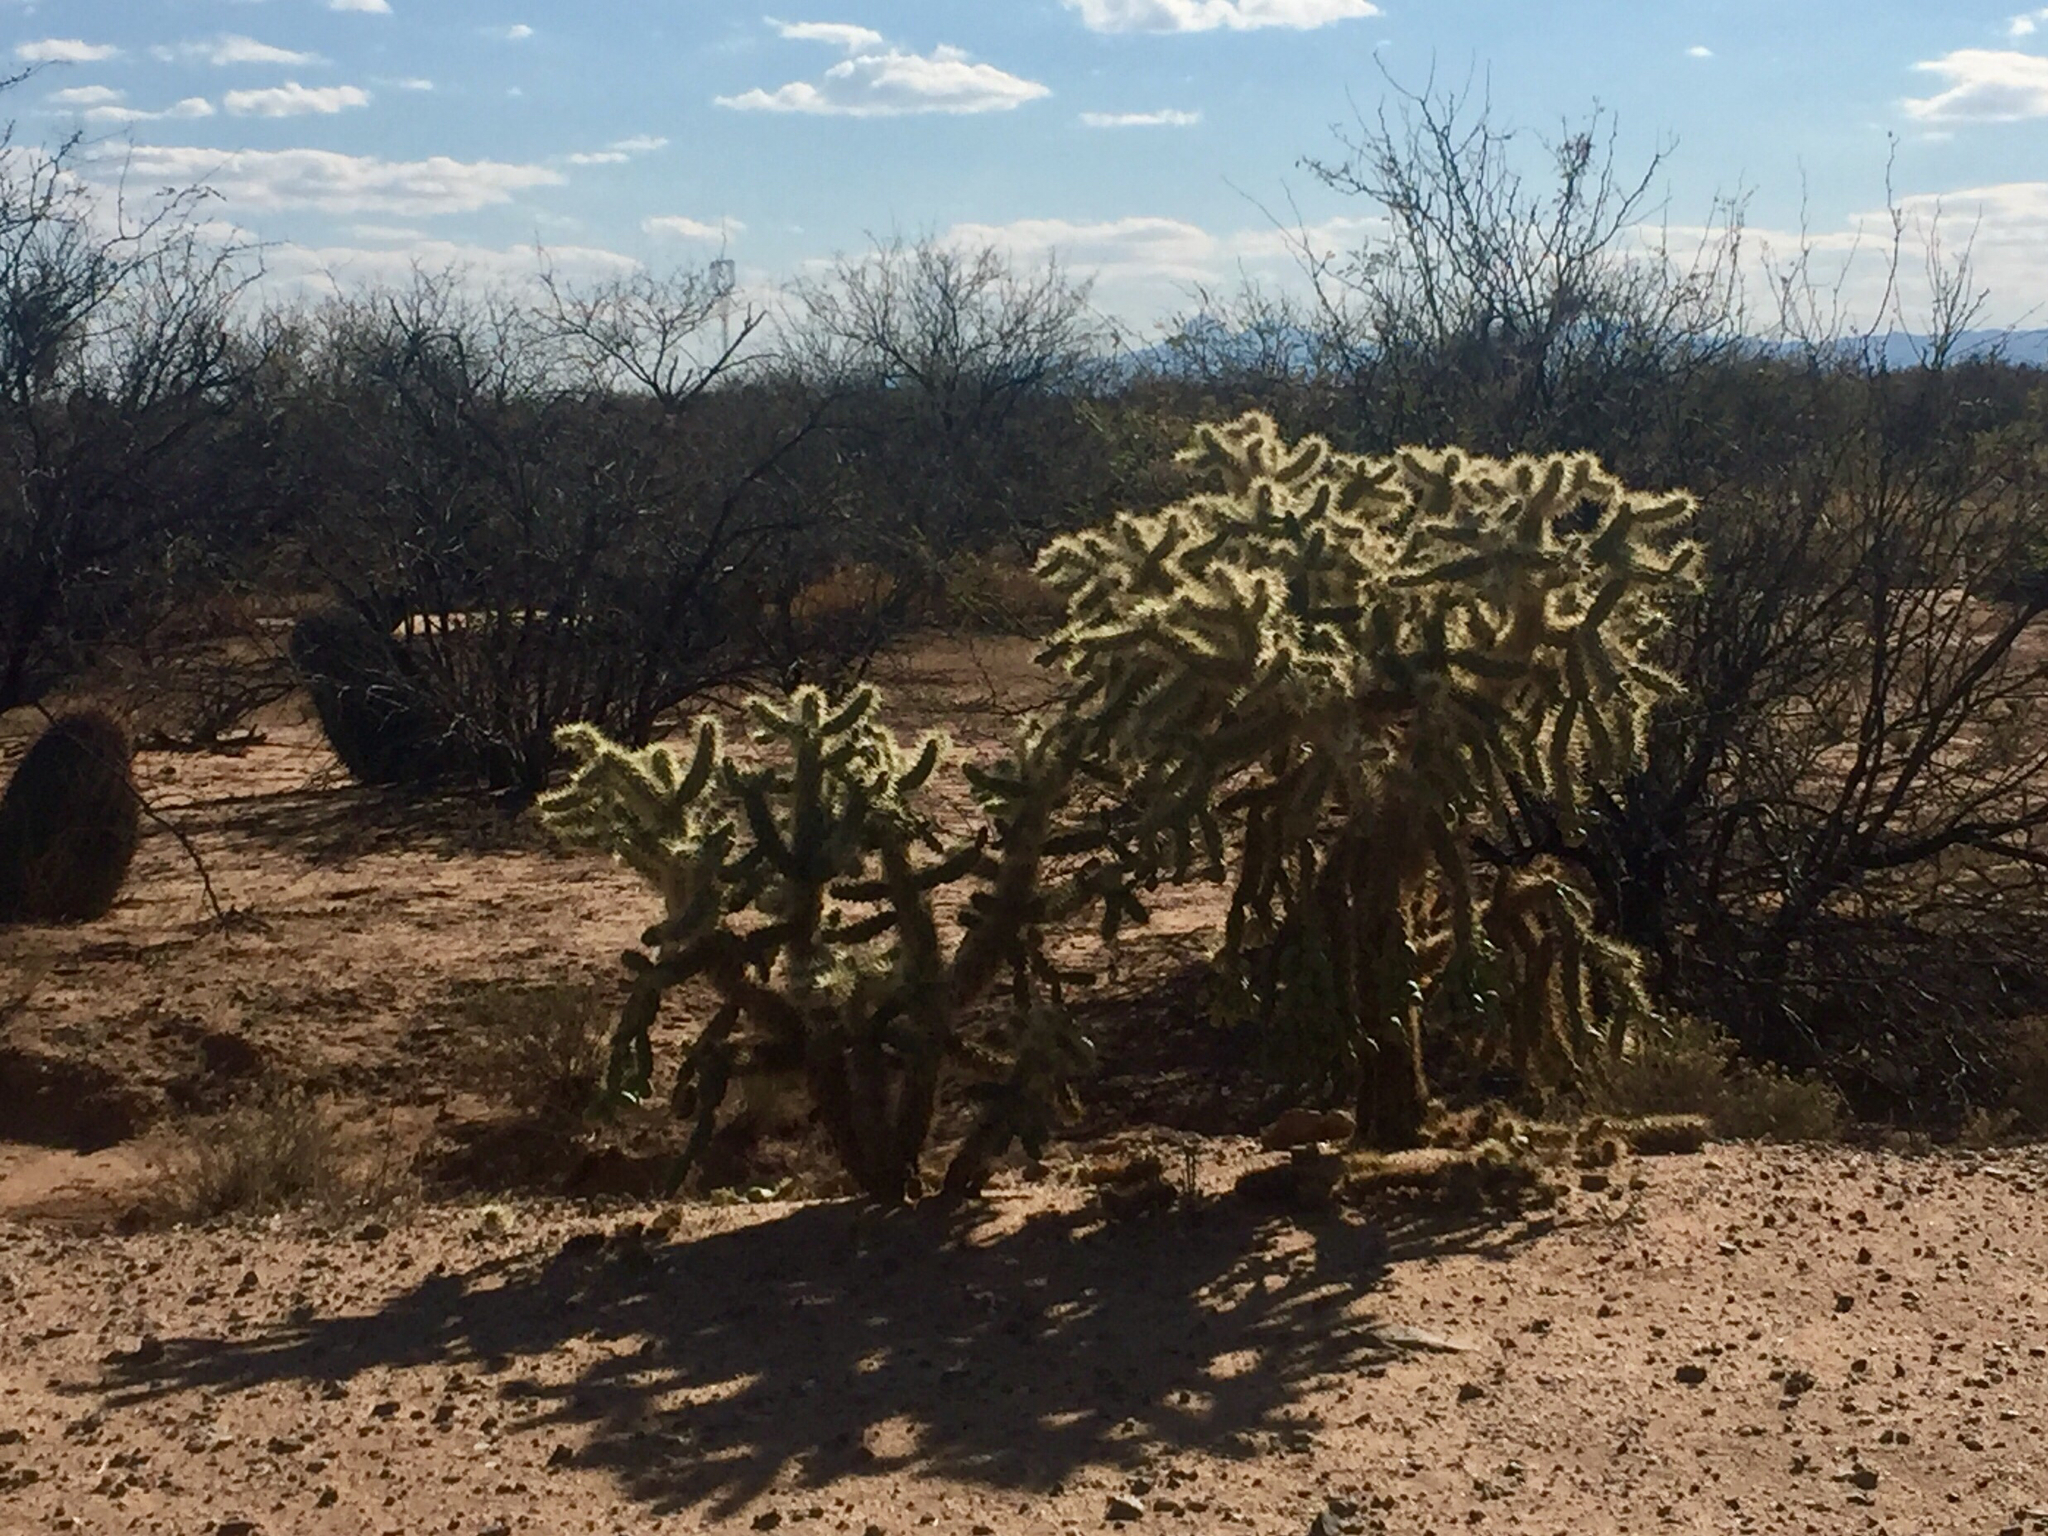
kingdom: Plantae
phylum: Tracheophyta
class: Magnoliopsida
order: Caryophyllales
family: Cactaceae
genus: Cylindropuntia
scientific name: Cylindropuntia fulgida
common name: Jumping cholla
